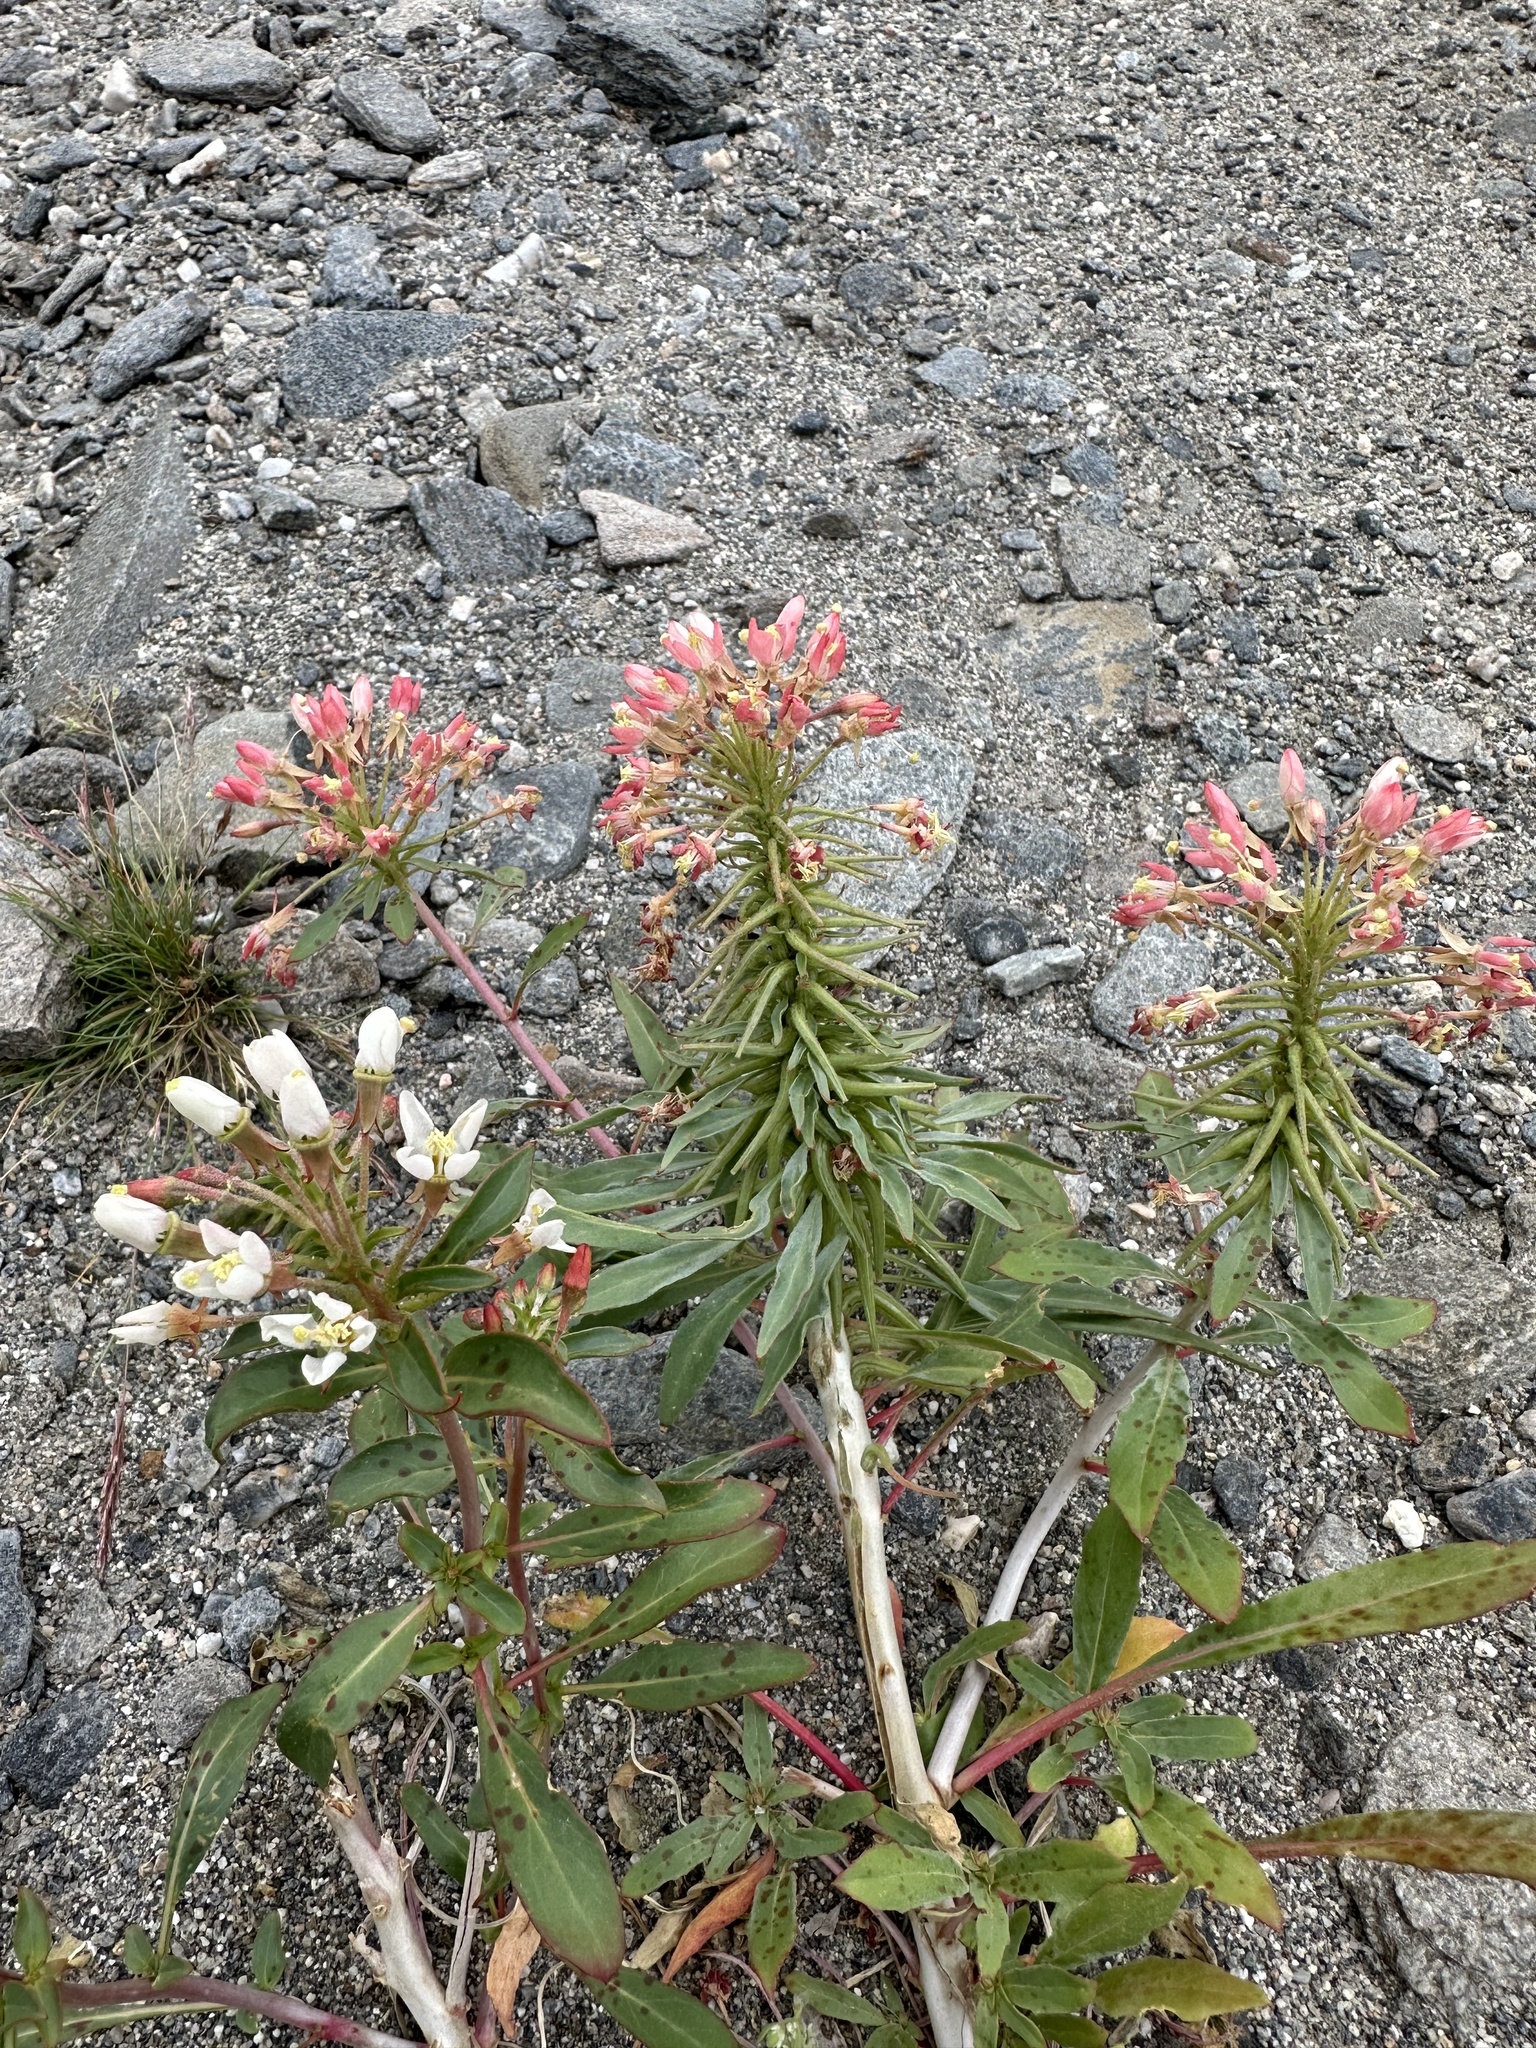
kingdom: Plantae
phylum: Tracheophyta
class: Magnoliopsida
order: Myrtales
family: Onagraceae
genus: Eremothera
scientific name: Eremothera boothii
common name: Booth's evening primrose
